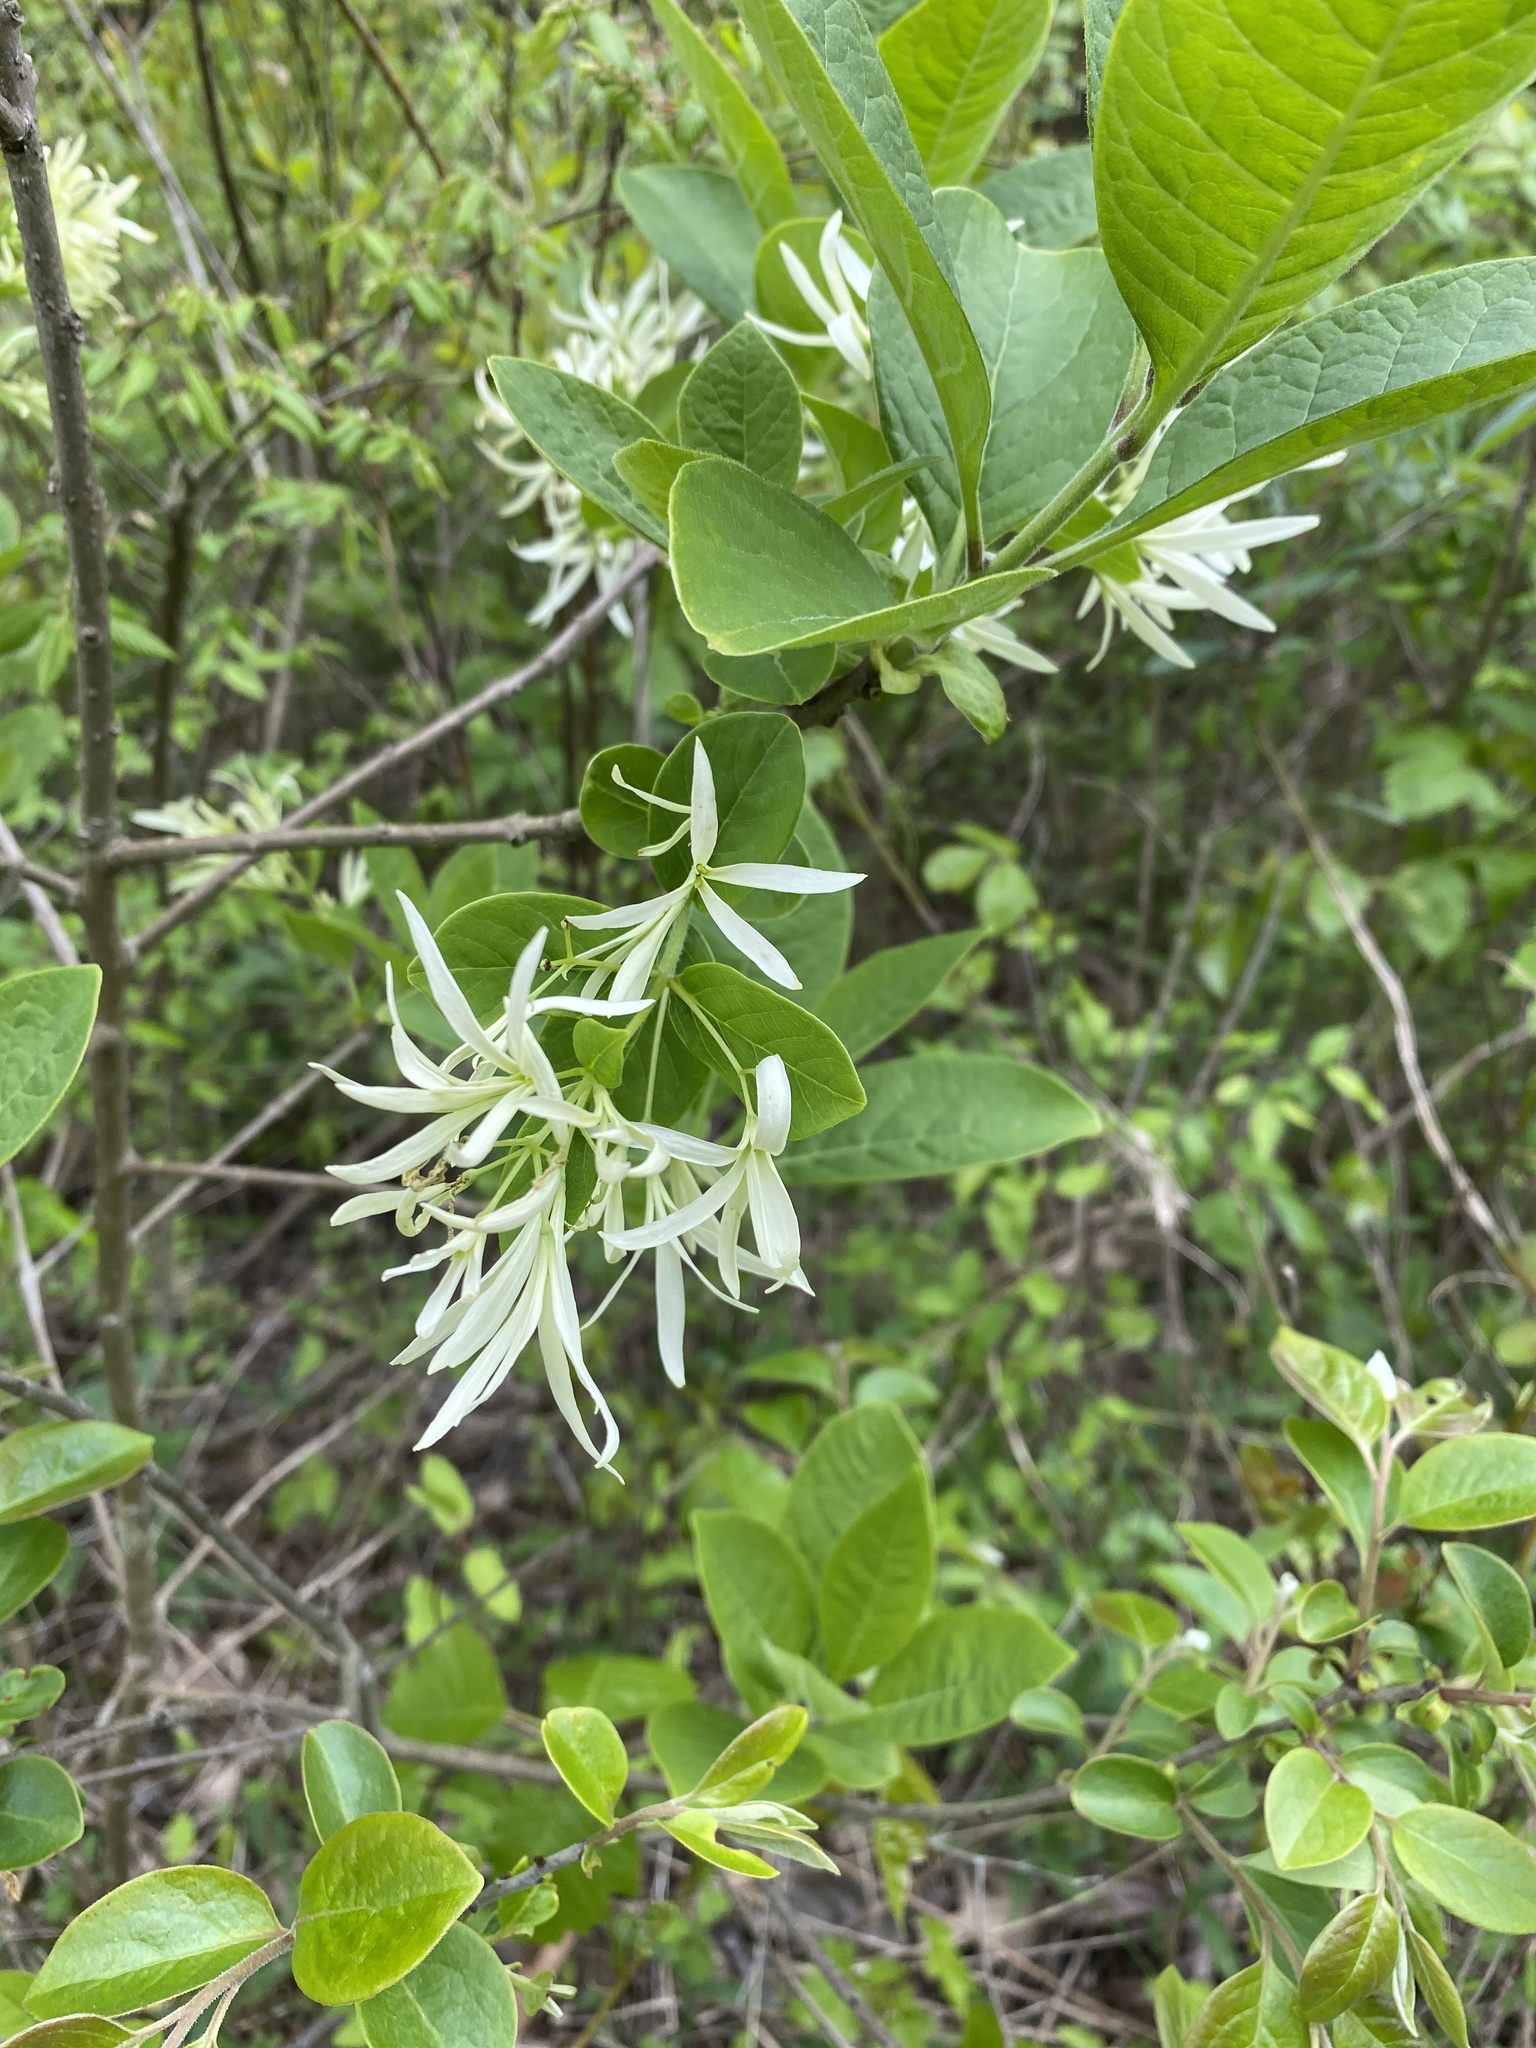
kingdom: Plantae
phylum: Tracheophyta
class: Magnoliopsida
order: Lamiales
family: Oleaceae
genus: Chionanthus
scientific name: Chionanthus virginicus
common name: American fringetree
